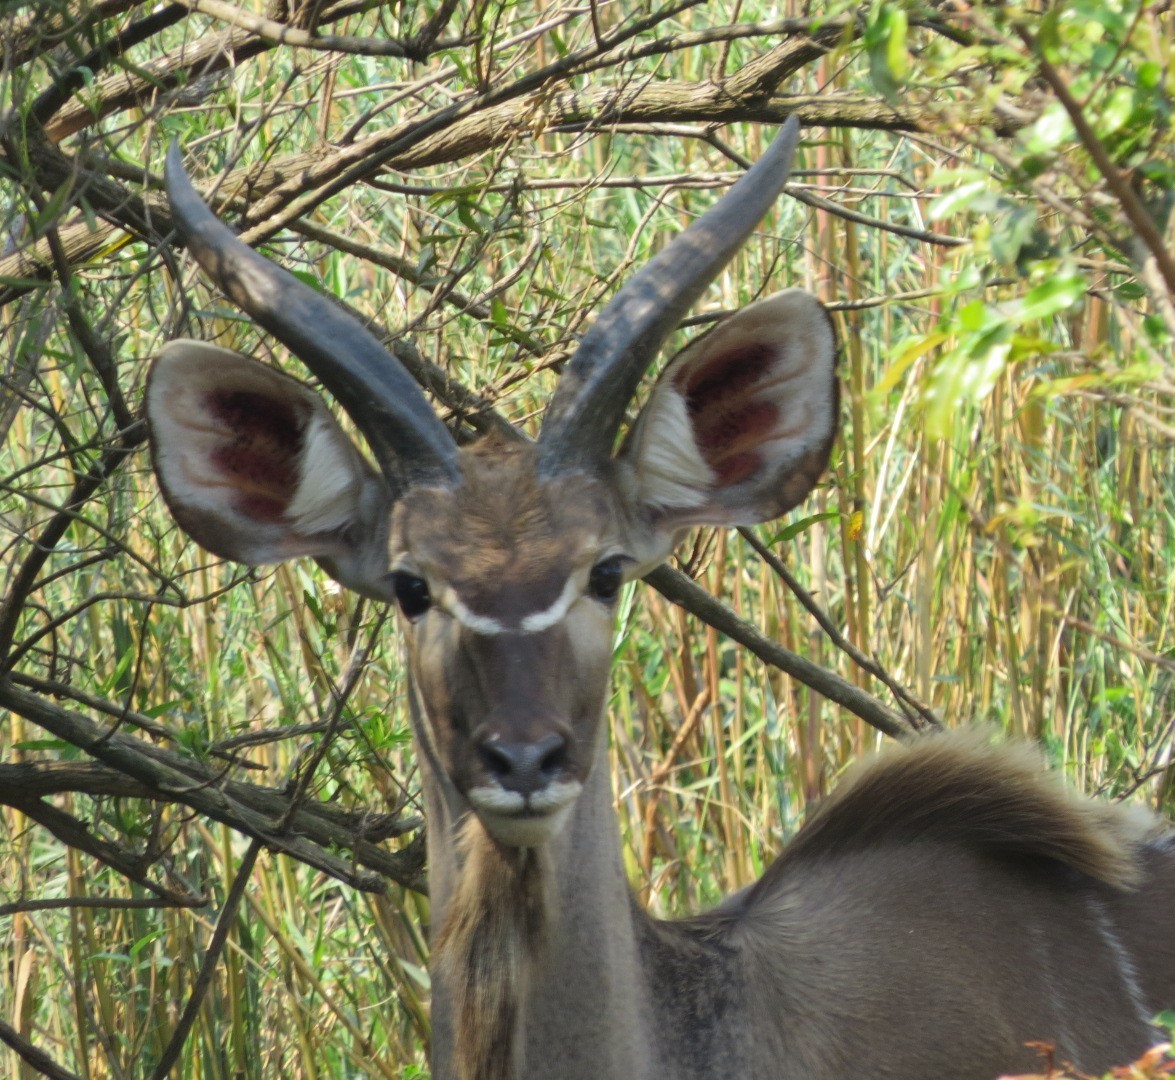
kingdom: Animalia
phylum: Chordata
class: Mammalia
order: Artiodactyla
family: Bovidae
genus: Tragelaphus
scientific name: Tragelaphus strepsiceros
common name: Greater kudu
